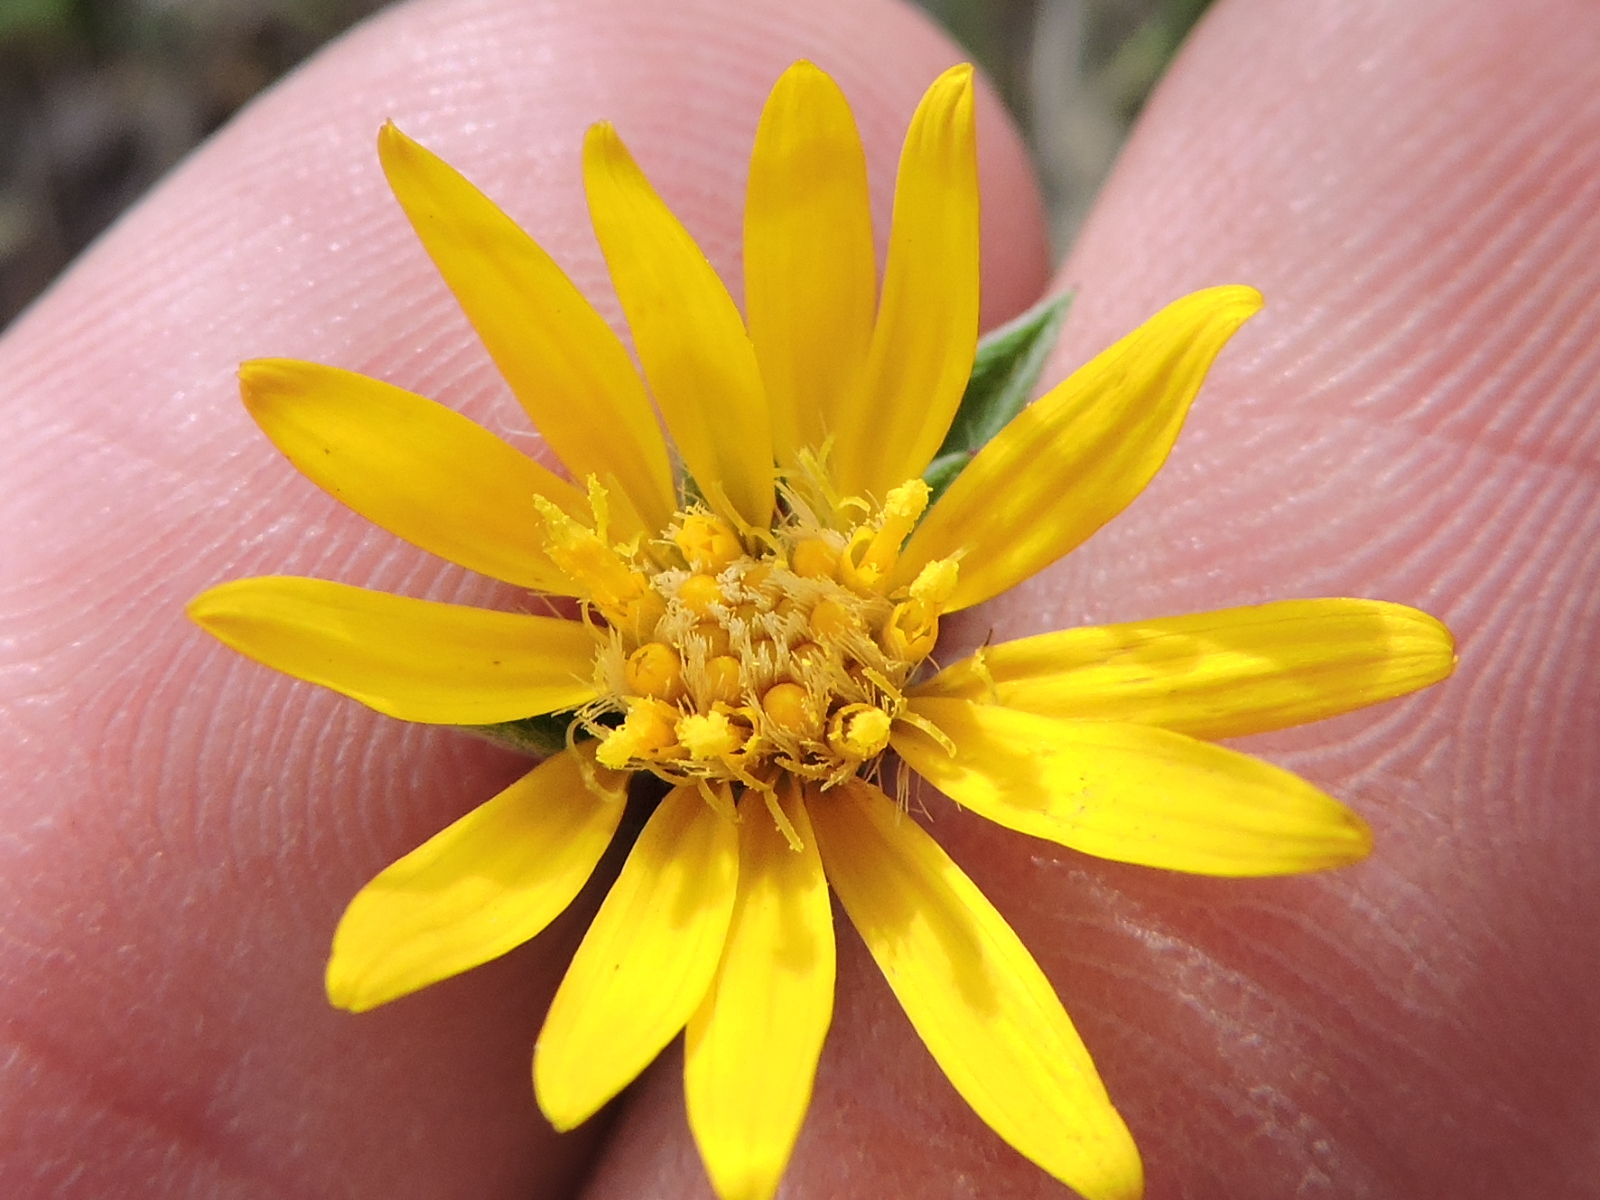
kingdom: Plantae
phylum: Tracheophyta
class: Magnoliopsida
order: Asterales
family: Asteraceae
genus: Heterotheca
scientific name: Heterotheca canescens
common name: Hoary golden-aster
